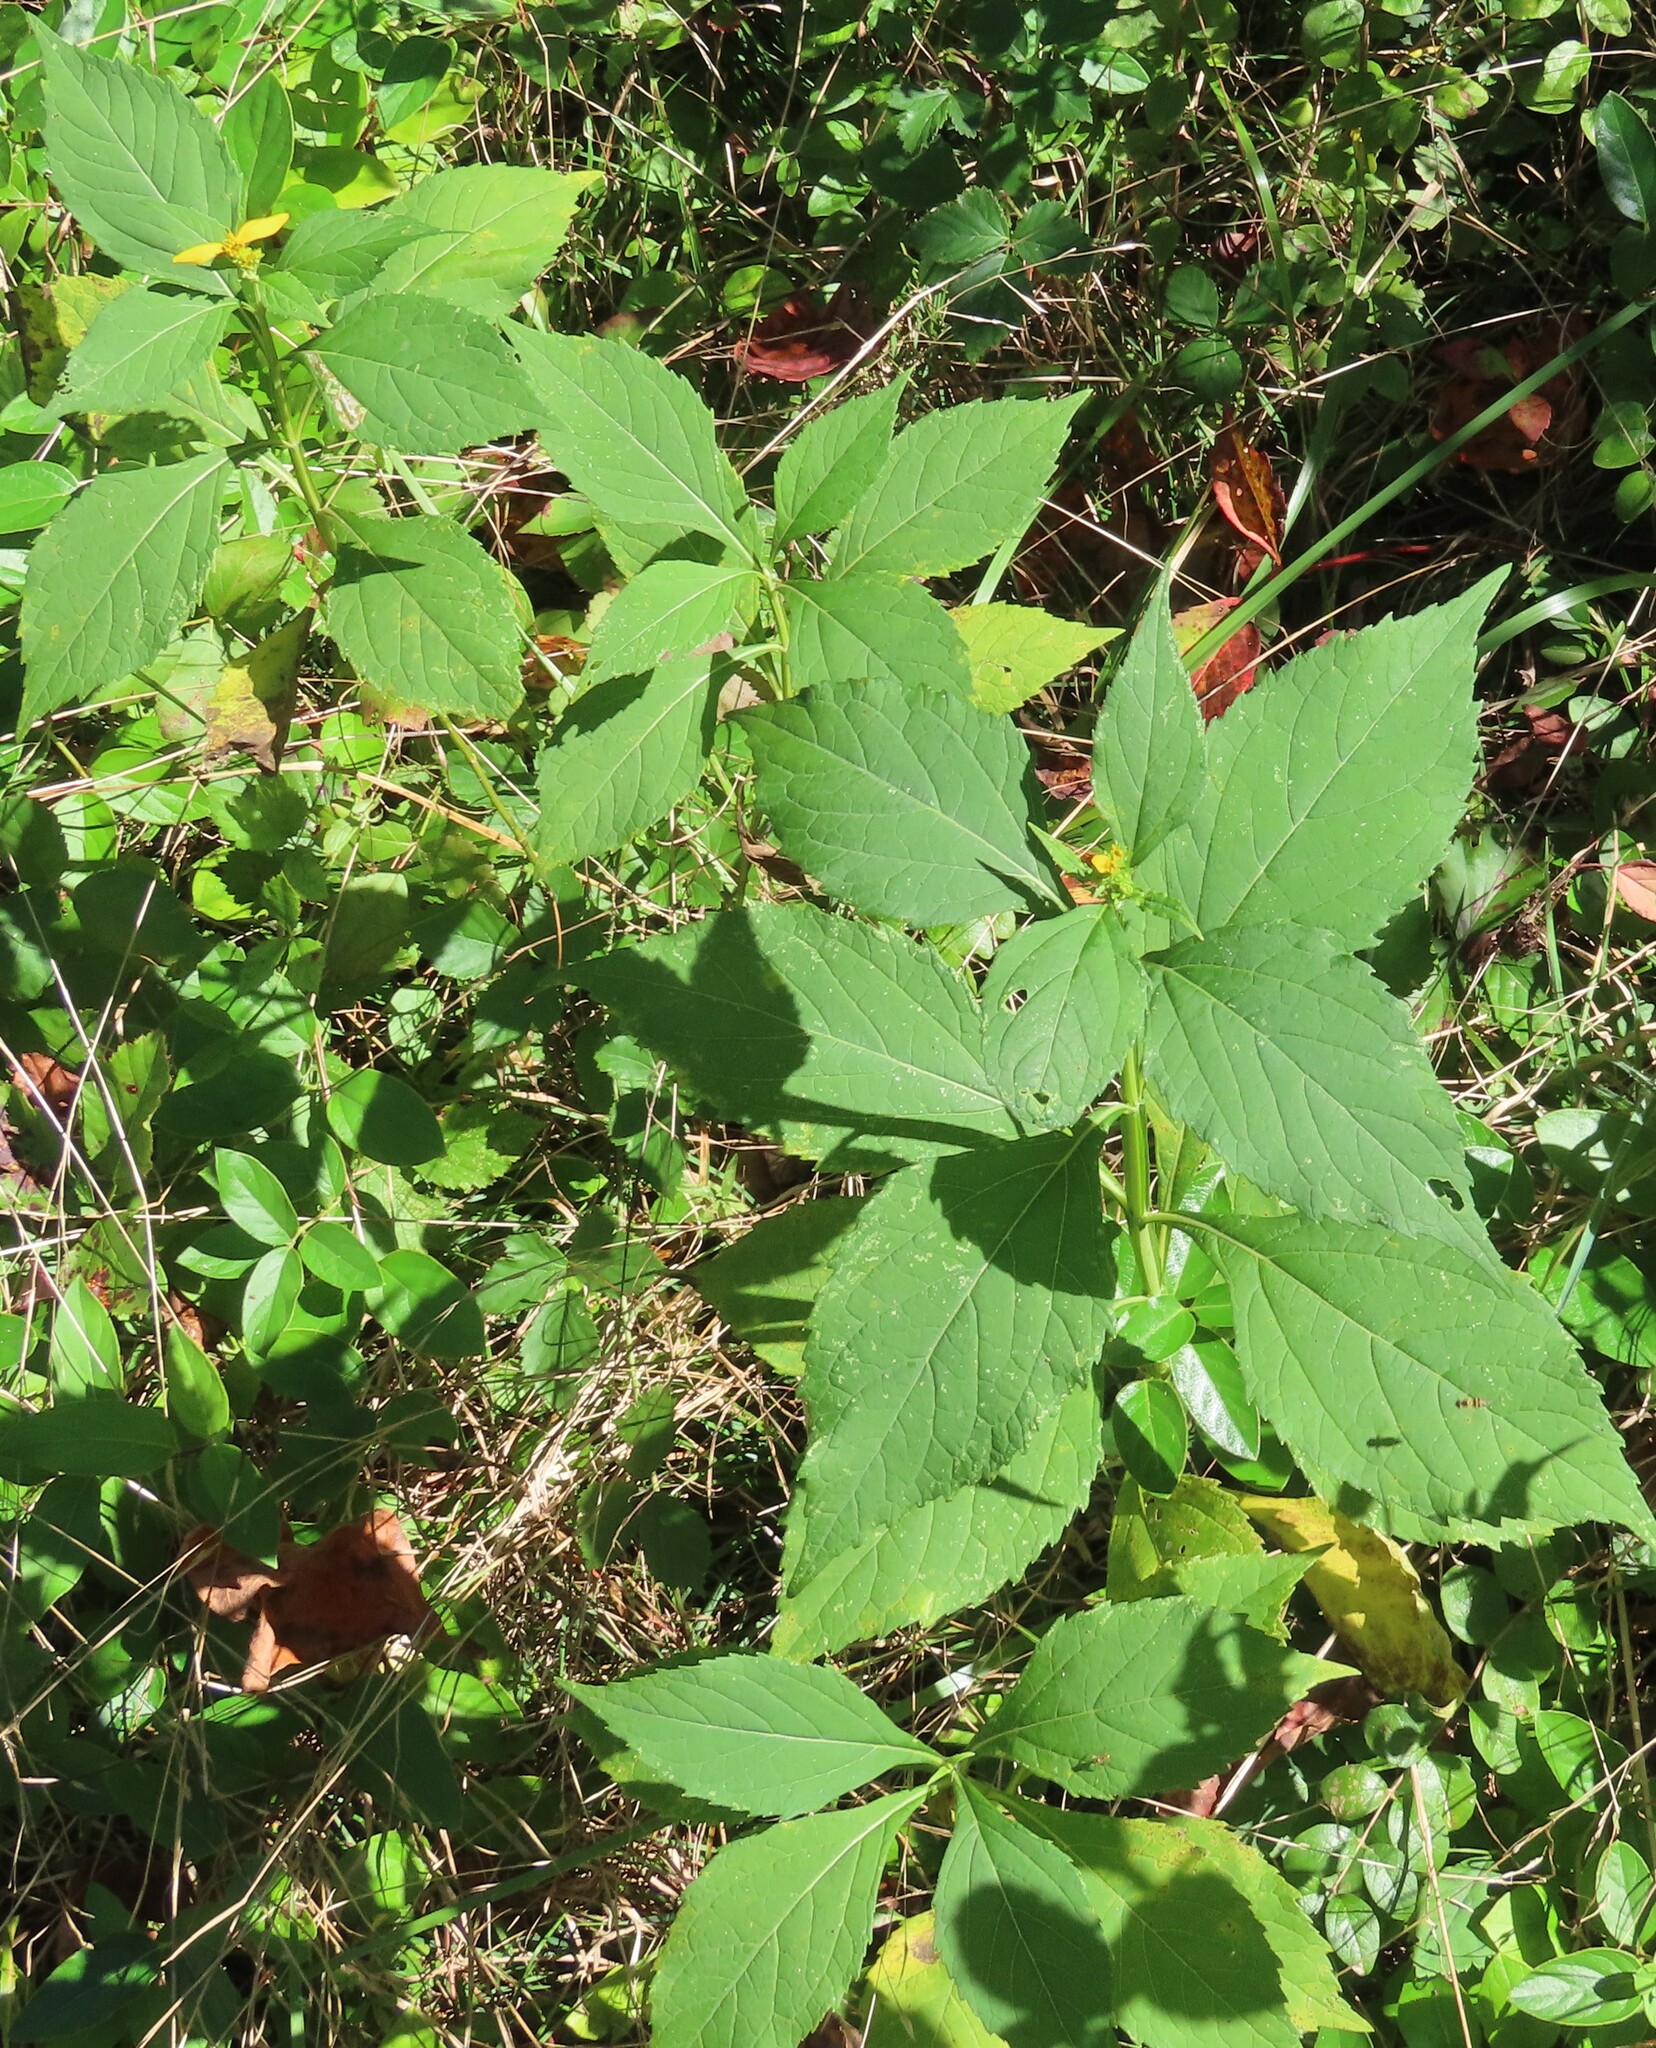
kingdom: Plantae
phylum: Tracheophyta
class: Magnoliopsida
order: Asterales
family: Asteraceae
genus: Verbesina
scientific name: Verbesina occidentalis
